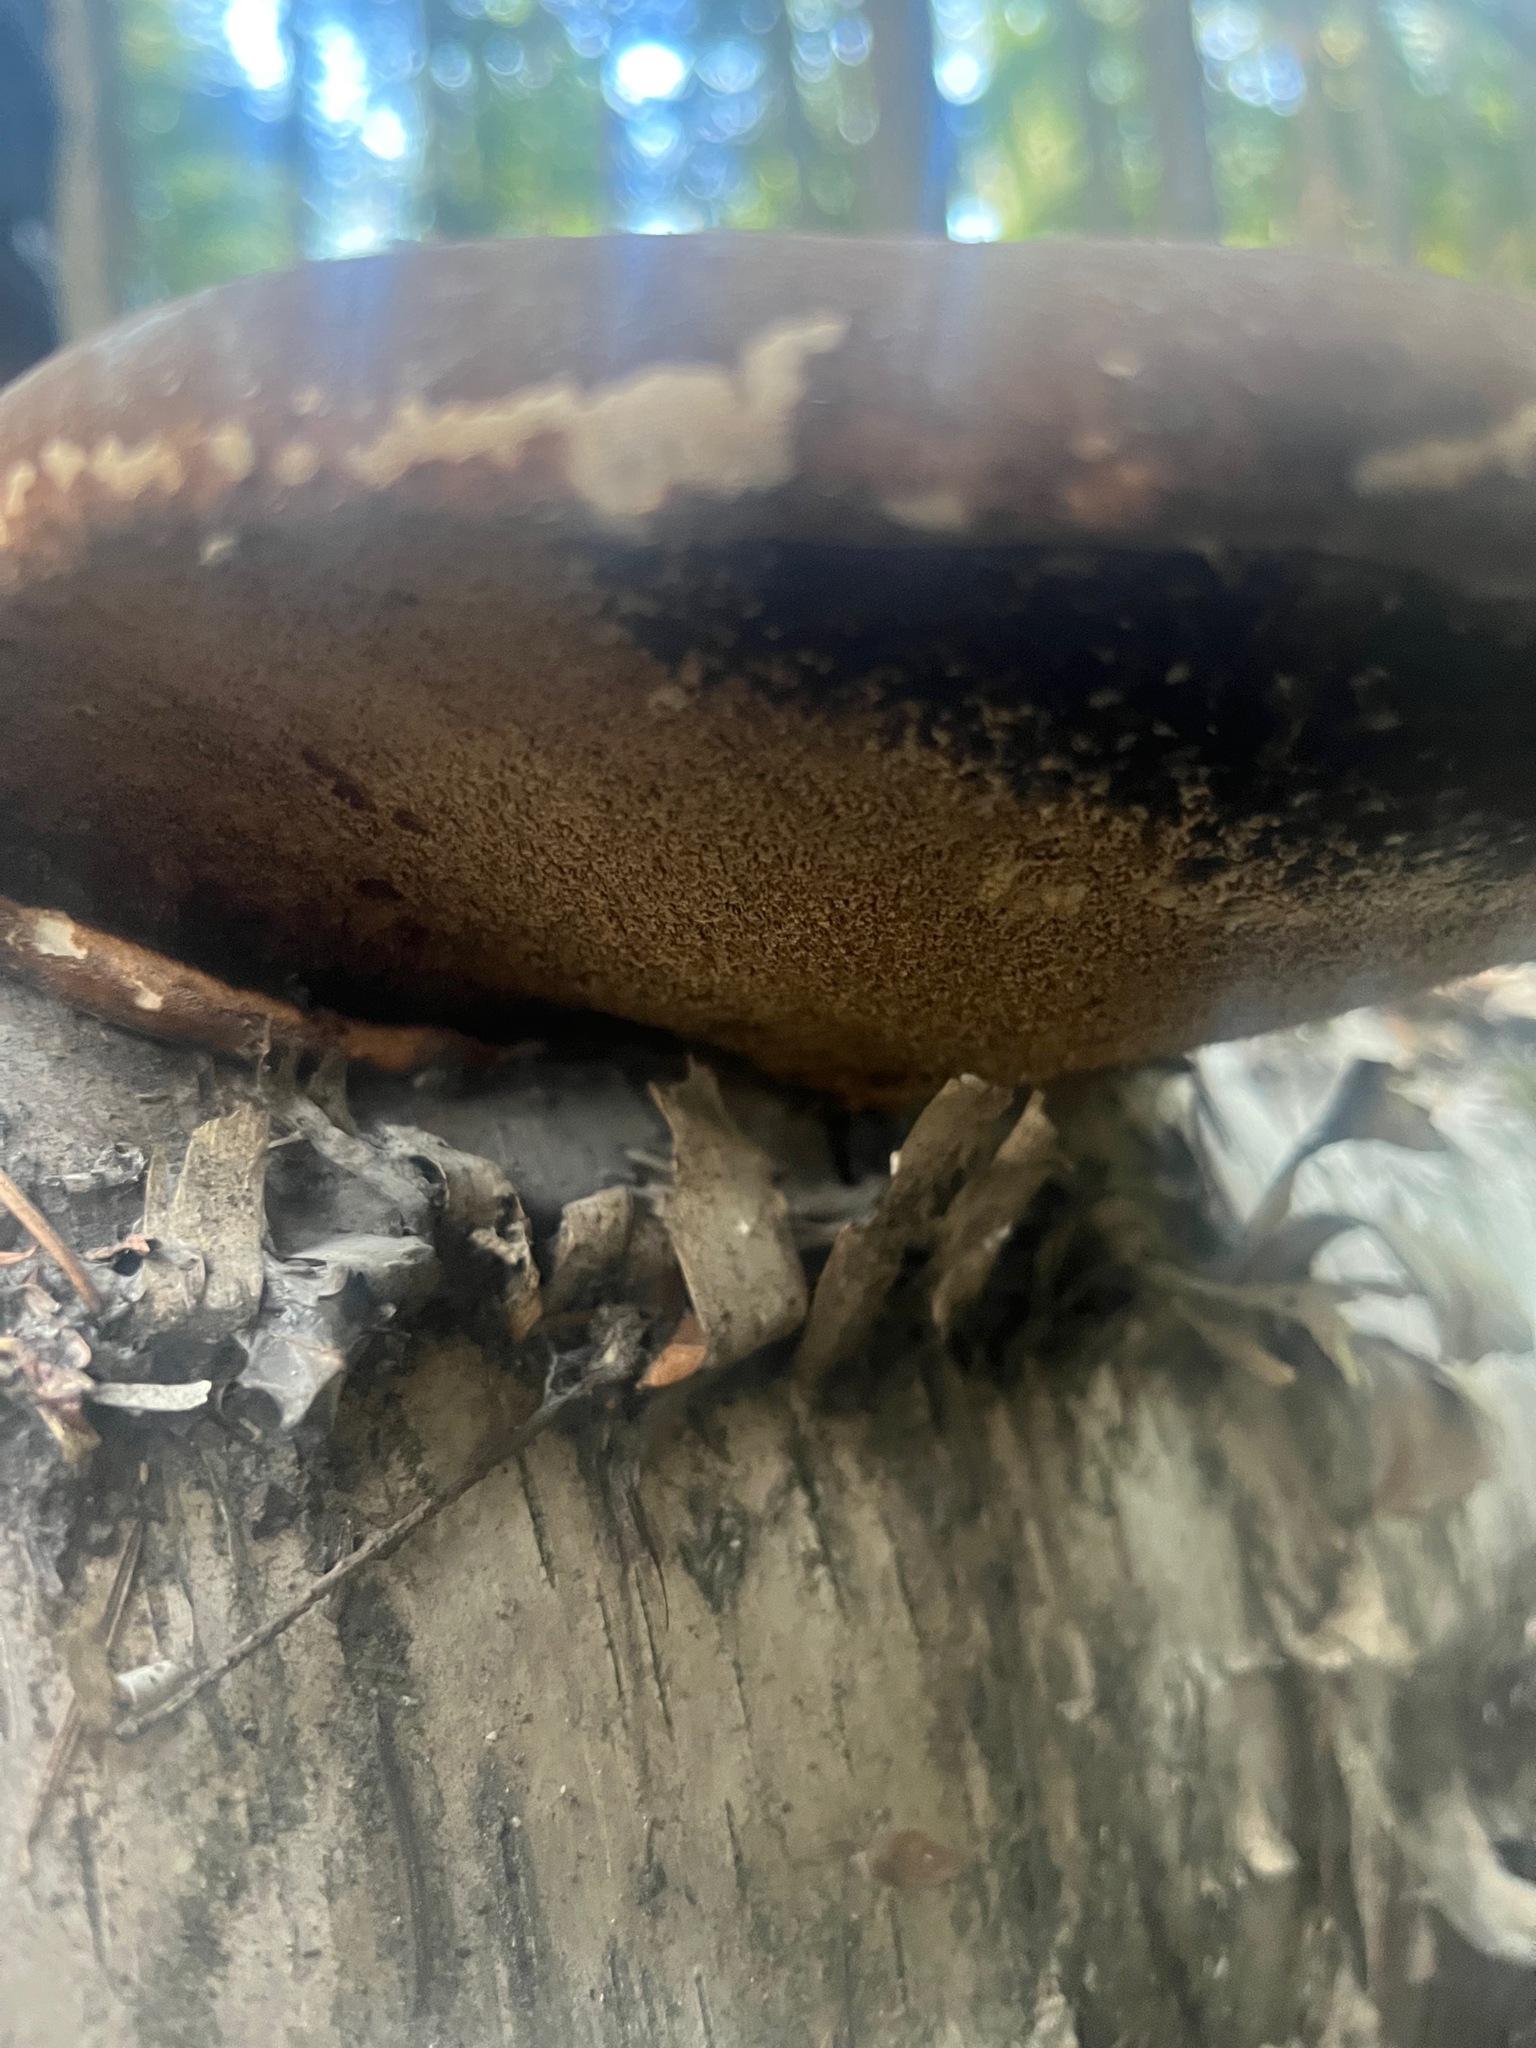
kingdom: Fungi
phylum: Basidiomycota
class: Agaricomycetes
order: Polyporales
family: Fomitopsidaceae
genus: Fomitopsis
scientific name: Fomitopsis betulina
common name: Birch polypore
